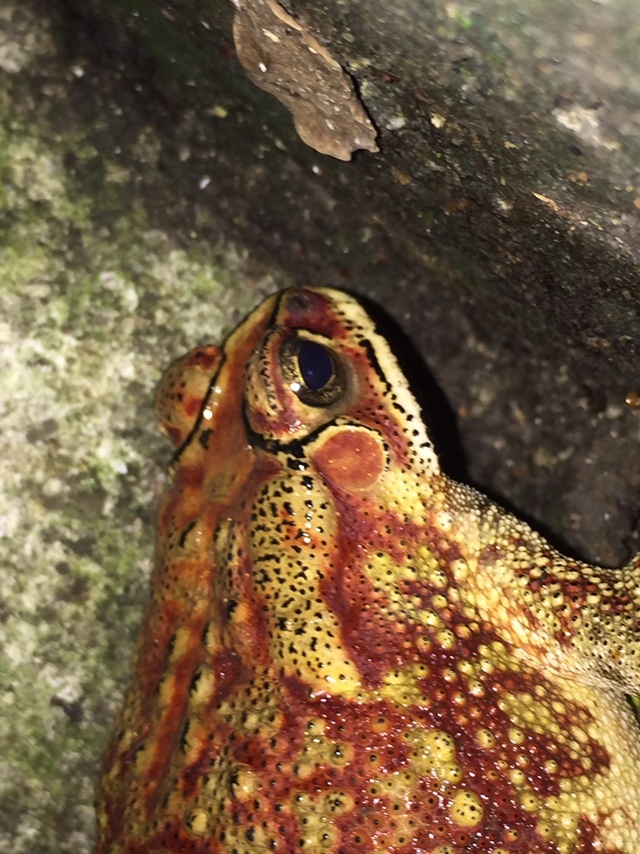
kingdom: Animalia
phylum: Chordata
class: Amphibia
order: Anura
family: Bufonidae
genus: Duttaphrynus
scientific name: Duttaphrynus melanostictus
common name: Common sunda toad
